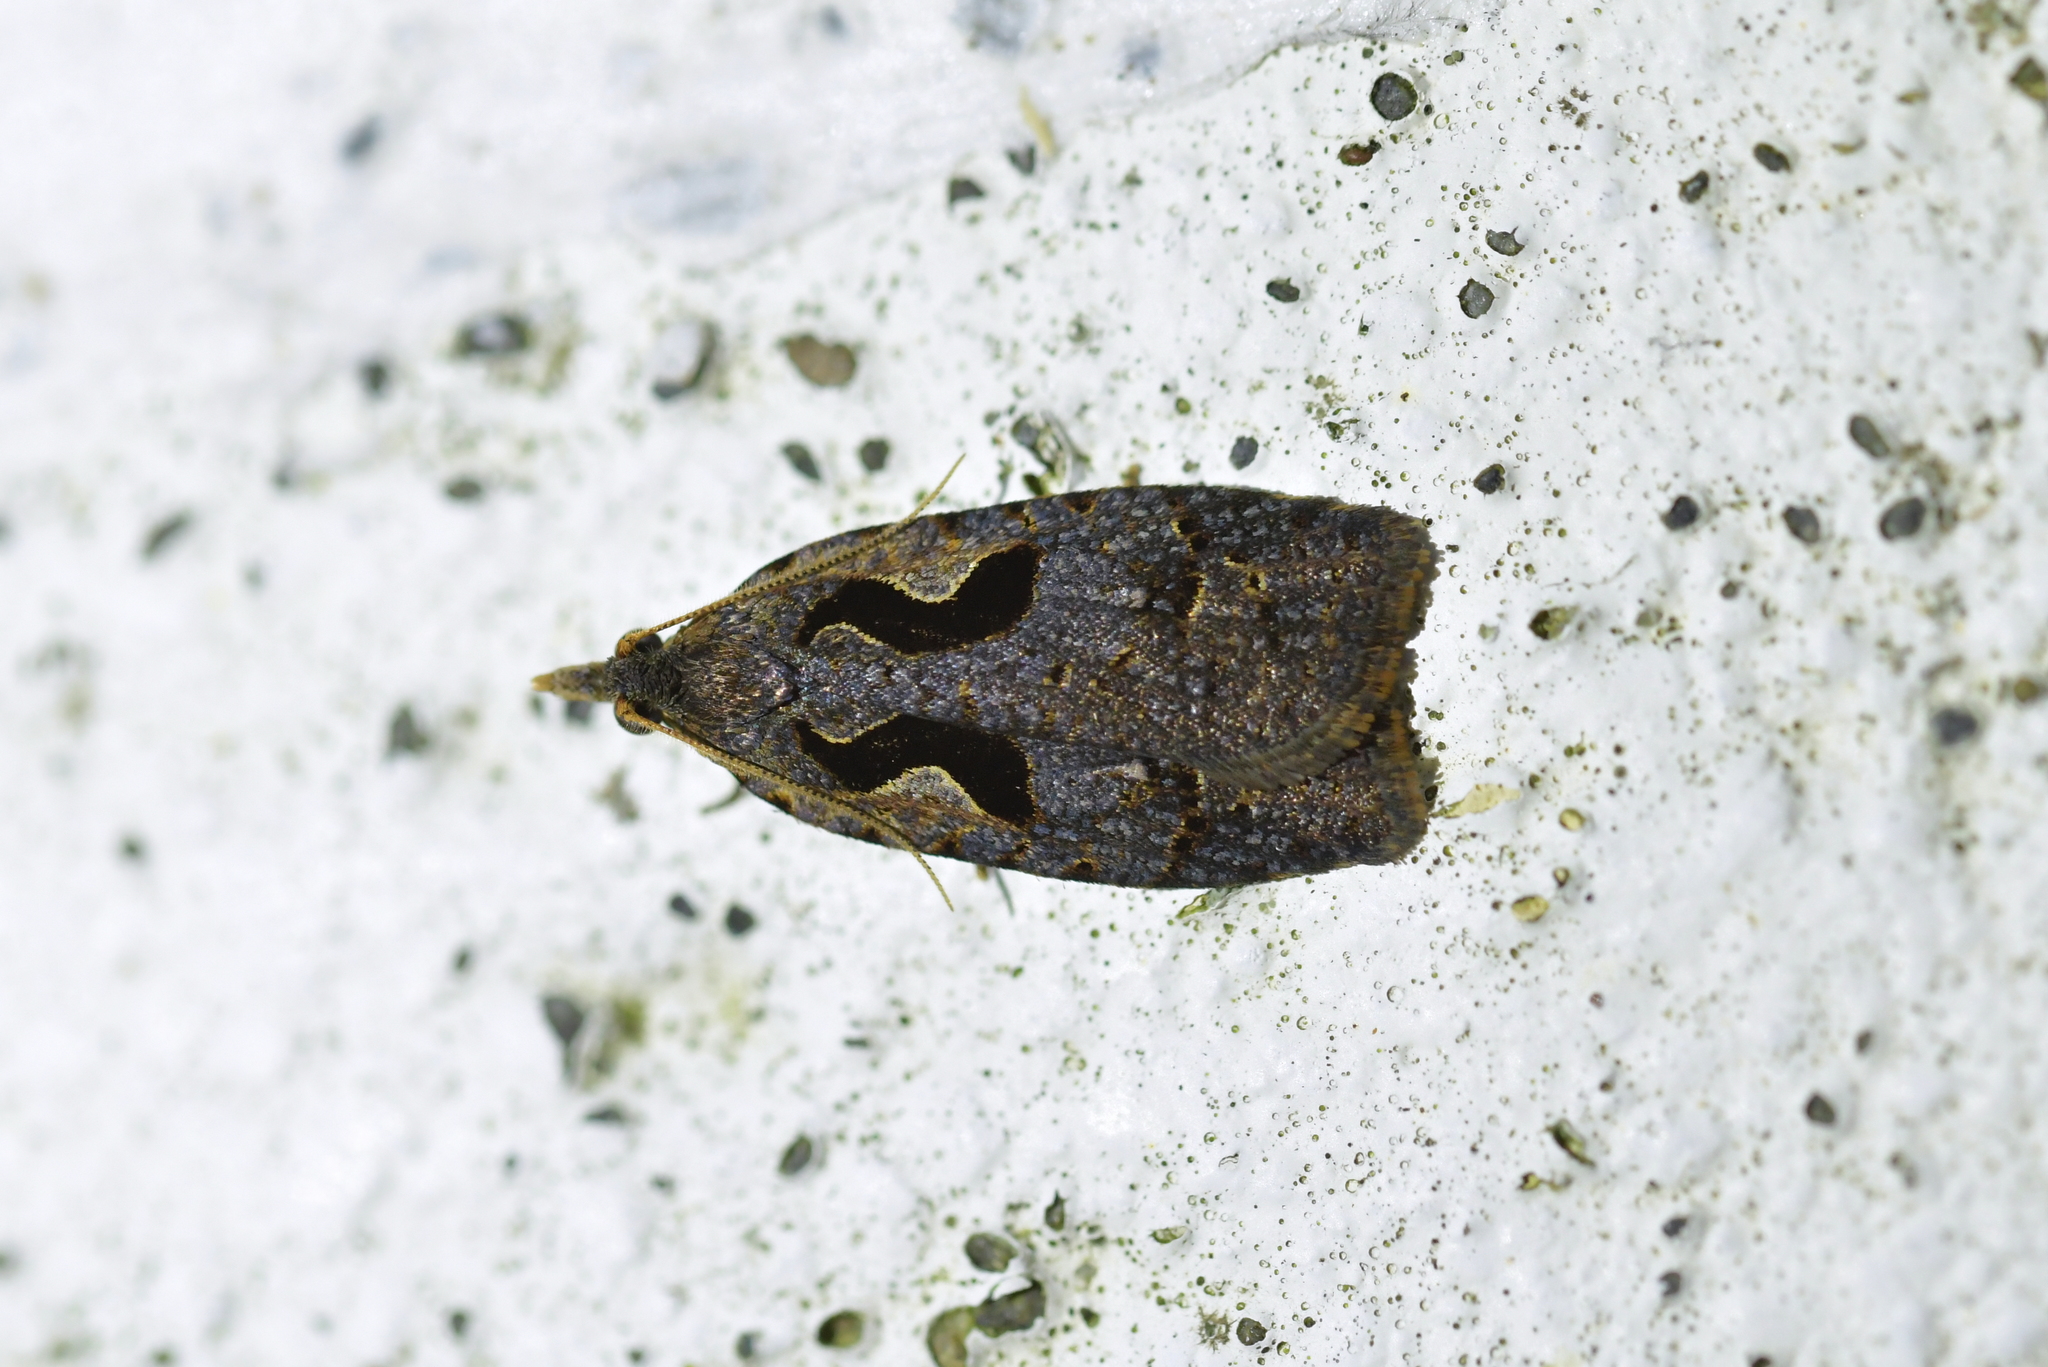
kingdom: Animalia
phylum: Arthropoda
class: Insecta
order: Lepidoptera
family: Tortricidae
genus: Cnephasia
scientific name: Cnephasia jactatana
